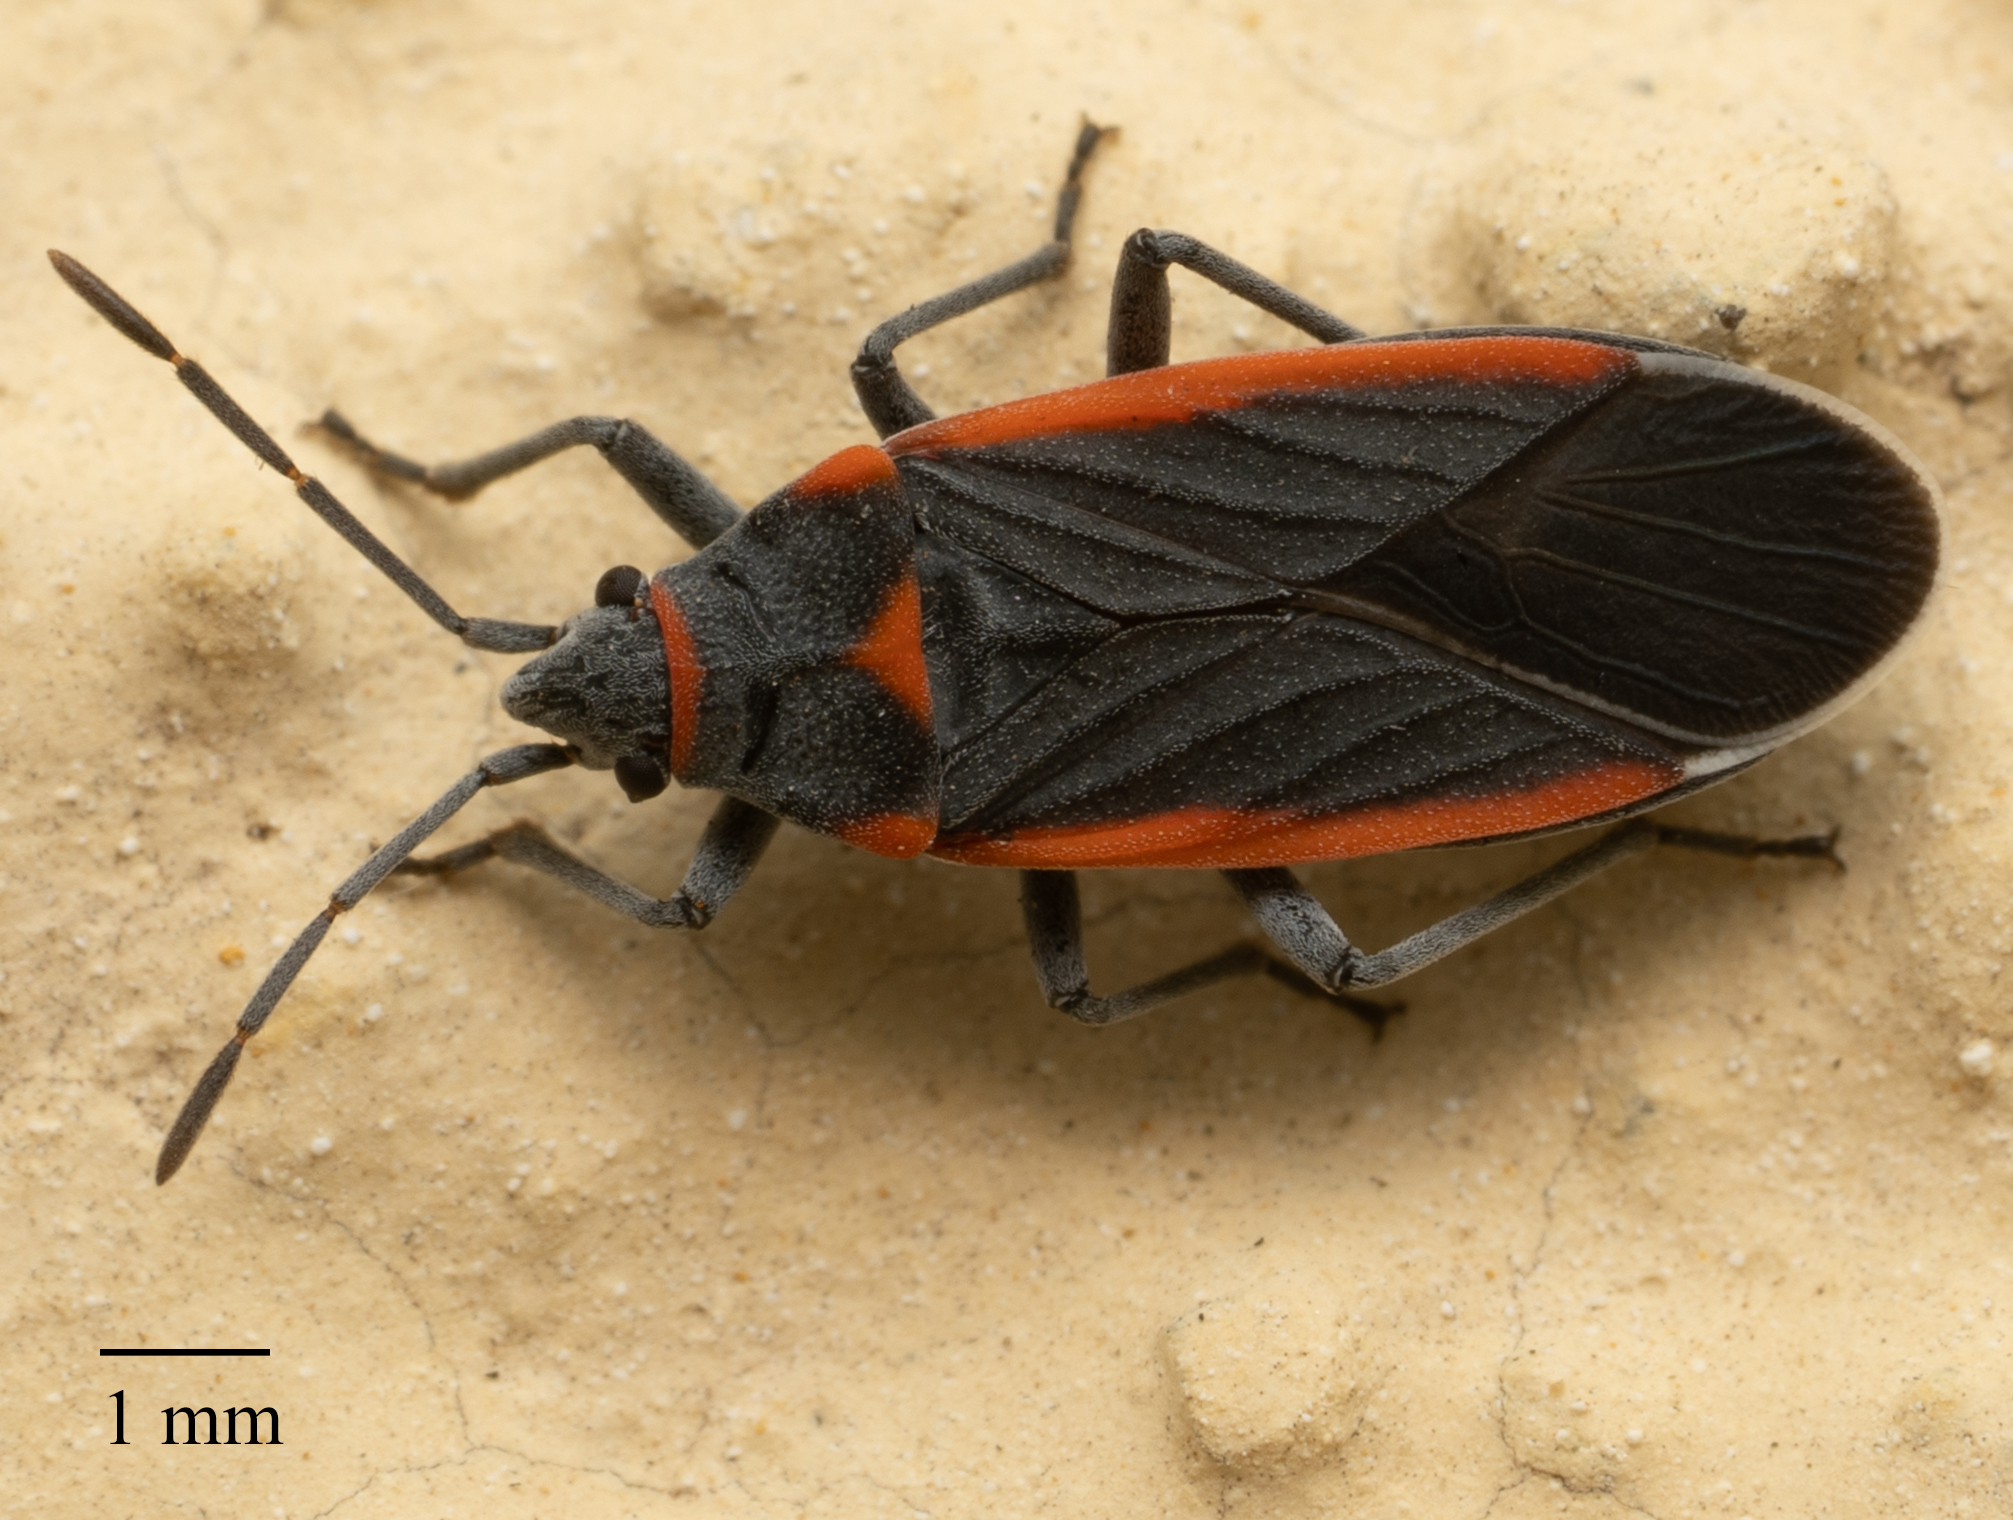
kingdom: Animalia
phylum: Arthropoda
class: Insecta
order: Hemiptera
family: Lygaeidae
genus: Melacoryphus
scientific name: Melacoryphus lateralis
